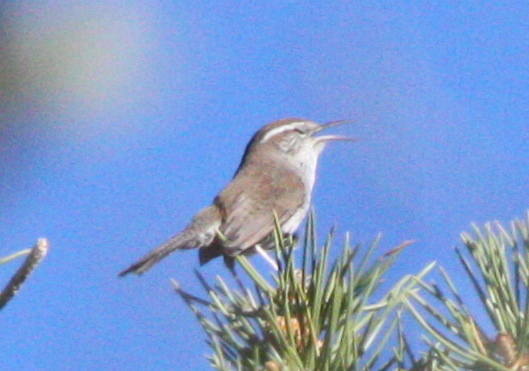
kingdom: Animalia
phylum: Chordata
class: Aves
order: Passeriformes
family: Troglodytidae
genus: Thryomanes
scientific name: Thryomanes bewickii
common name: Bewick's wren
